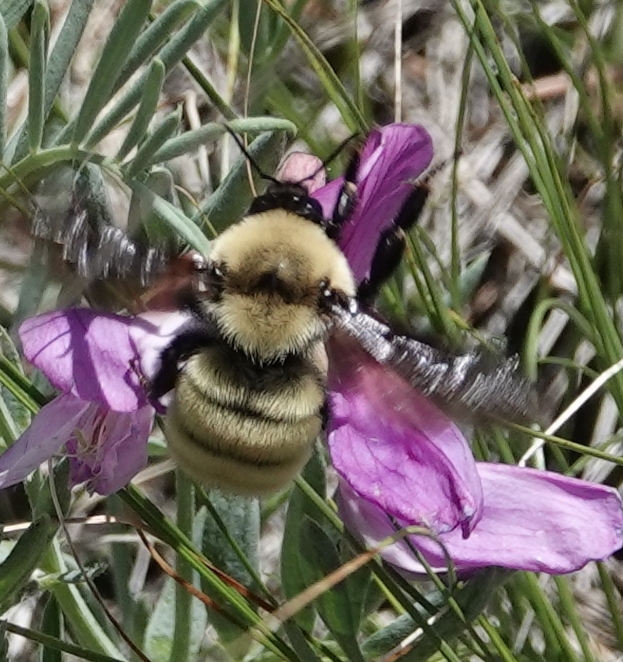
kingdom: Animalia
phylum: Arthropoda
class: Insecta
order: Hymenoptera
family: Apidae
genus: Bombus
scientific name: Bombus fervidus
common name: Yellow bumble bee
